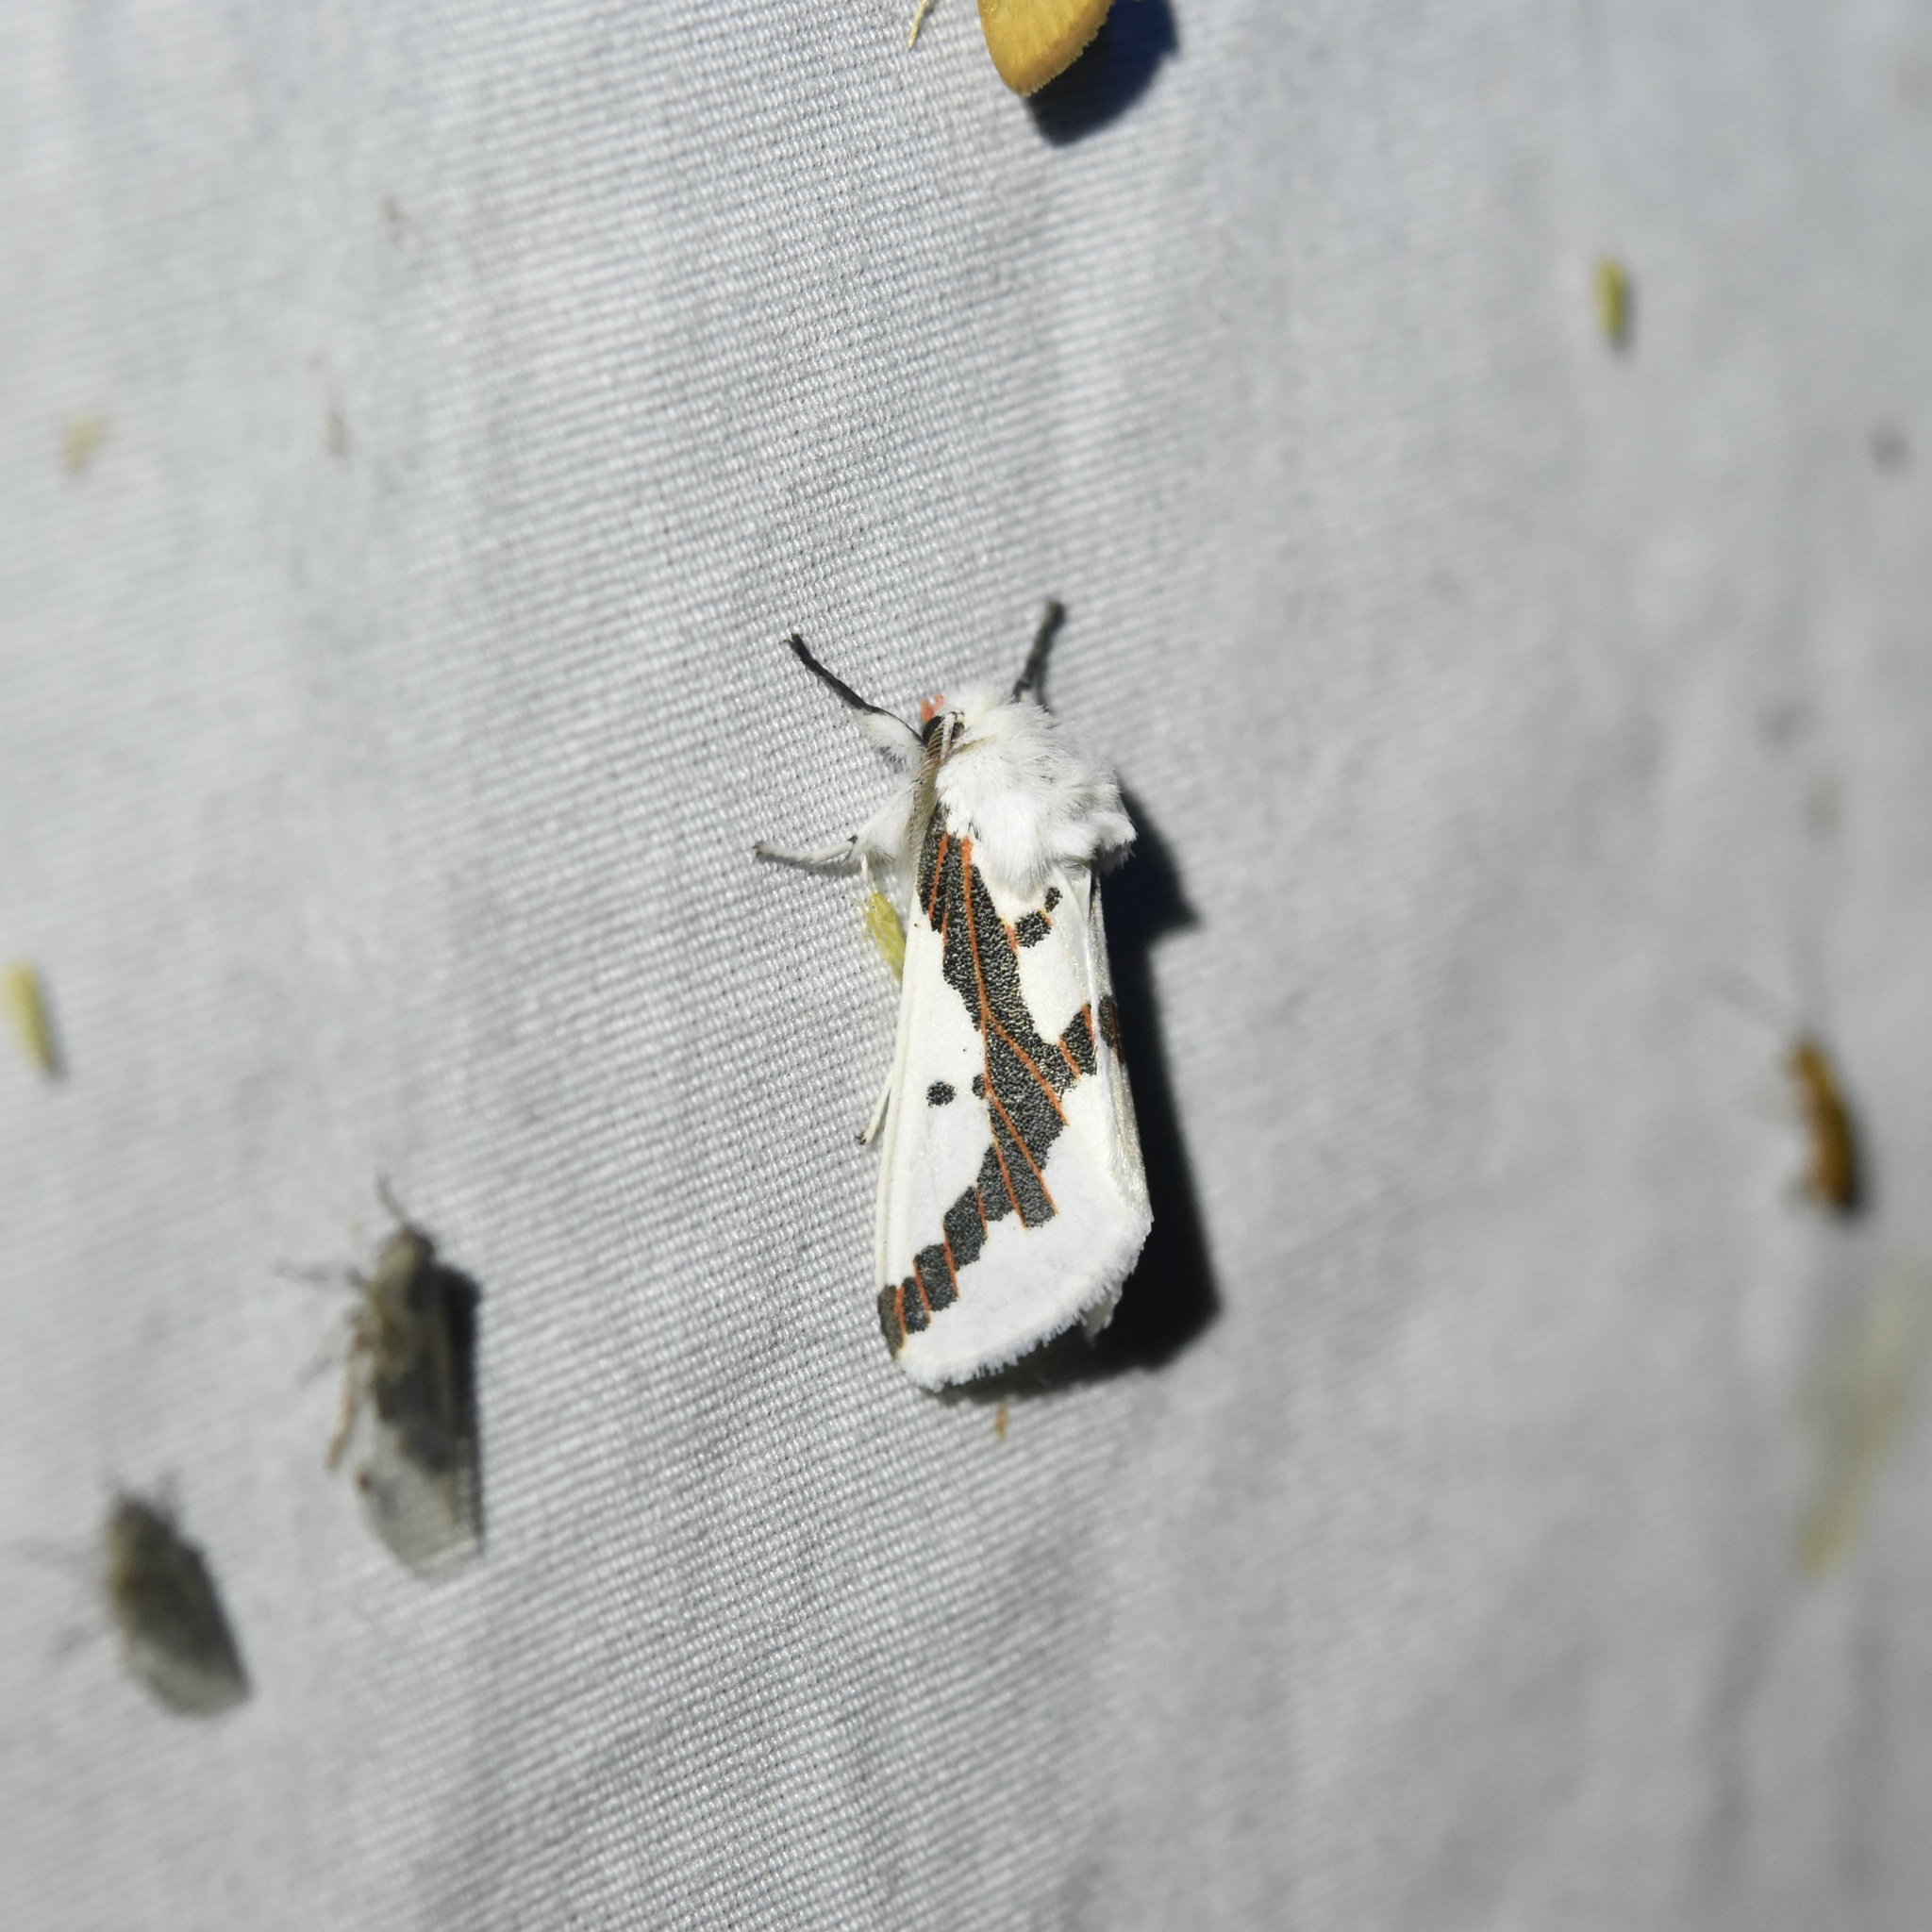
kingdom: Animalia
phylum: Arthropoda
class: Insecta
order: Lepidoptera
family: Erebidae
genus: Euerythra
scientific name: Euerythra phasma
